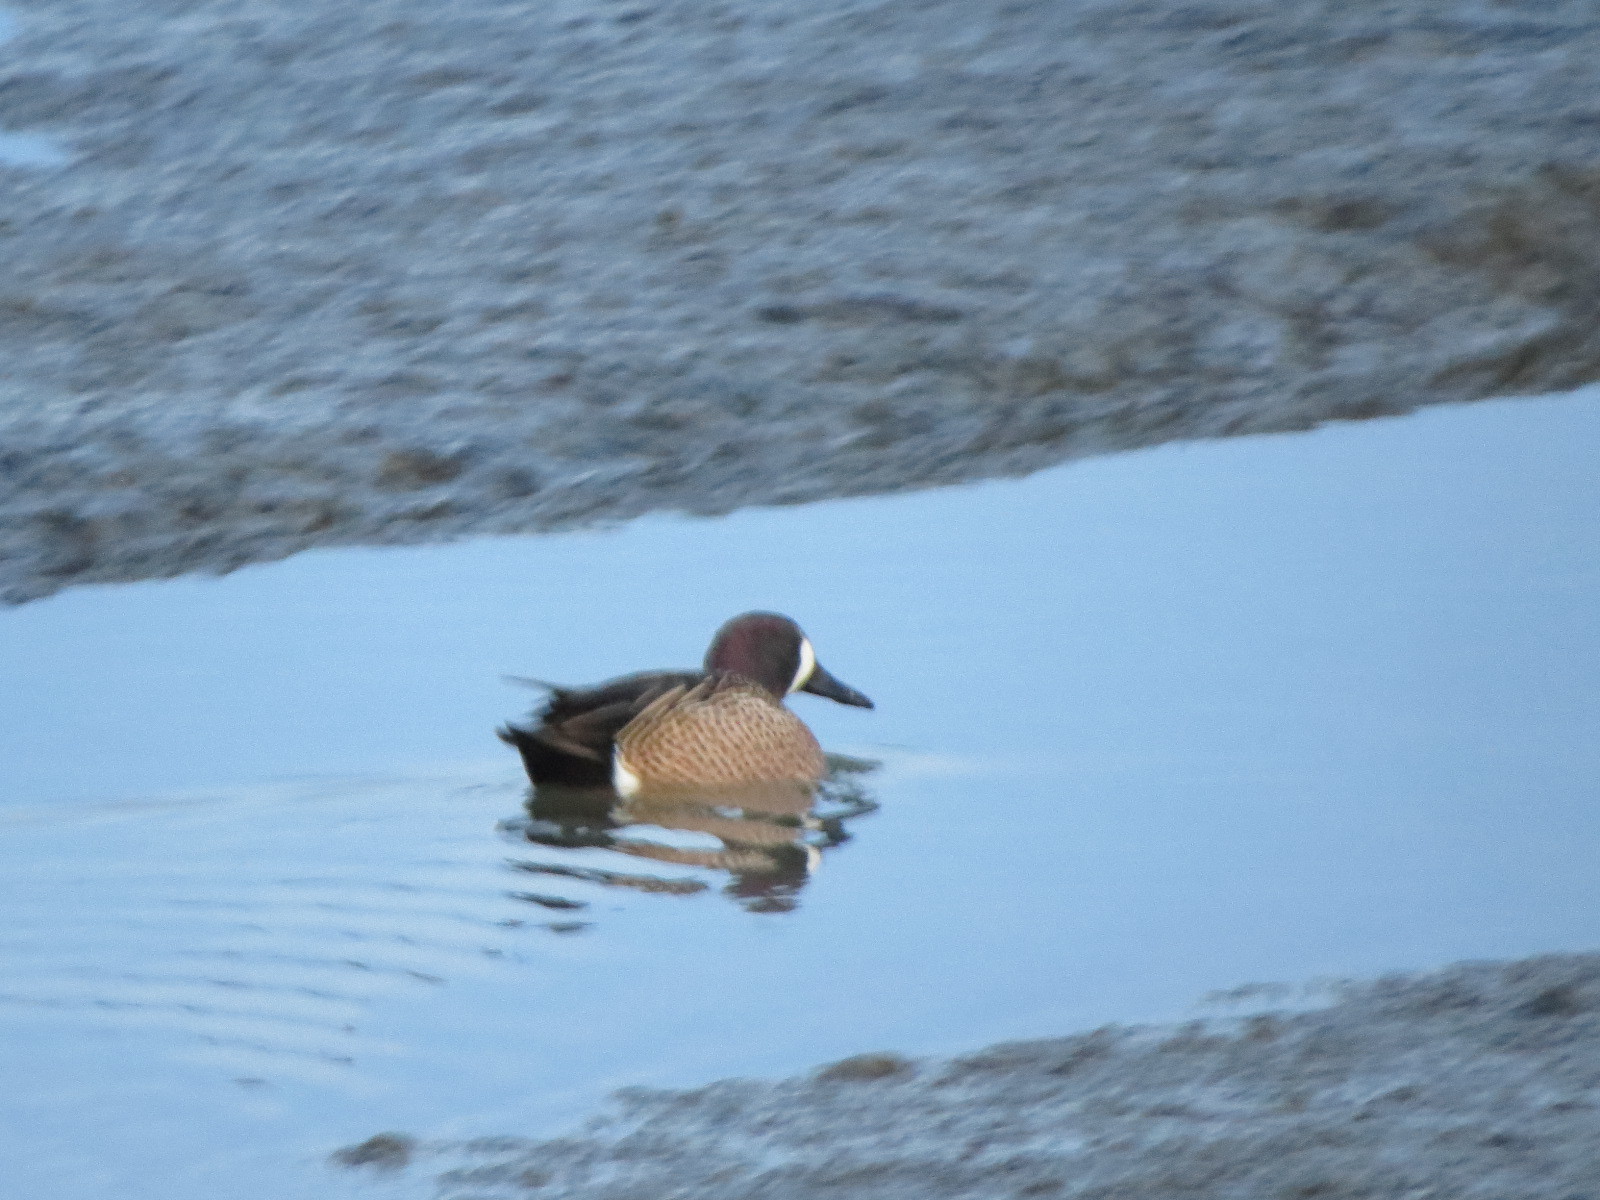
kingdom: Animalia
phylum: Chordata
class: Aves
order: Anseriformes
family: Anatidae
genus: Spatula
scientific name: Spatula discors
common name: Blue-winged teal
